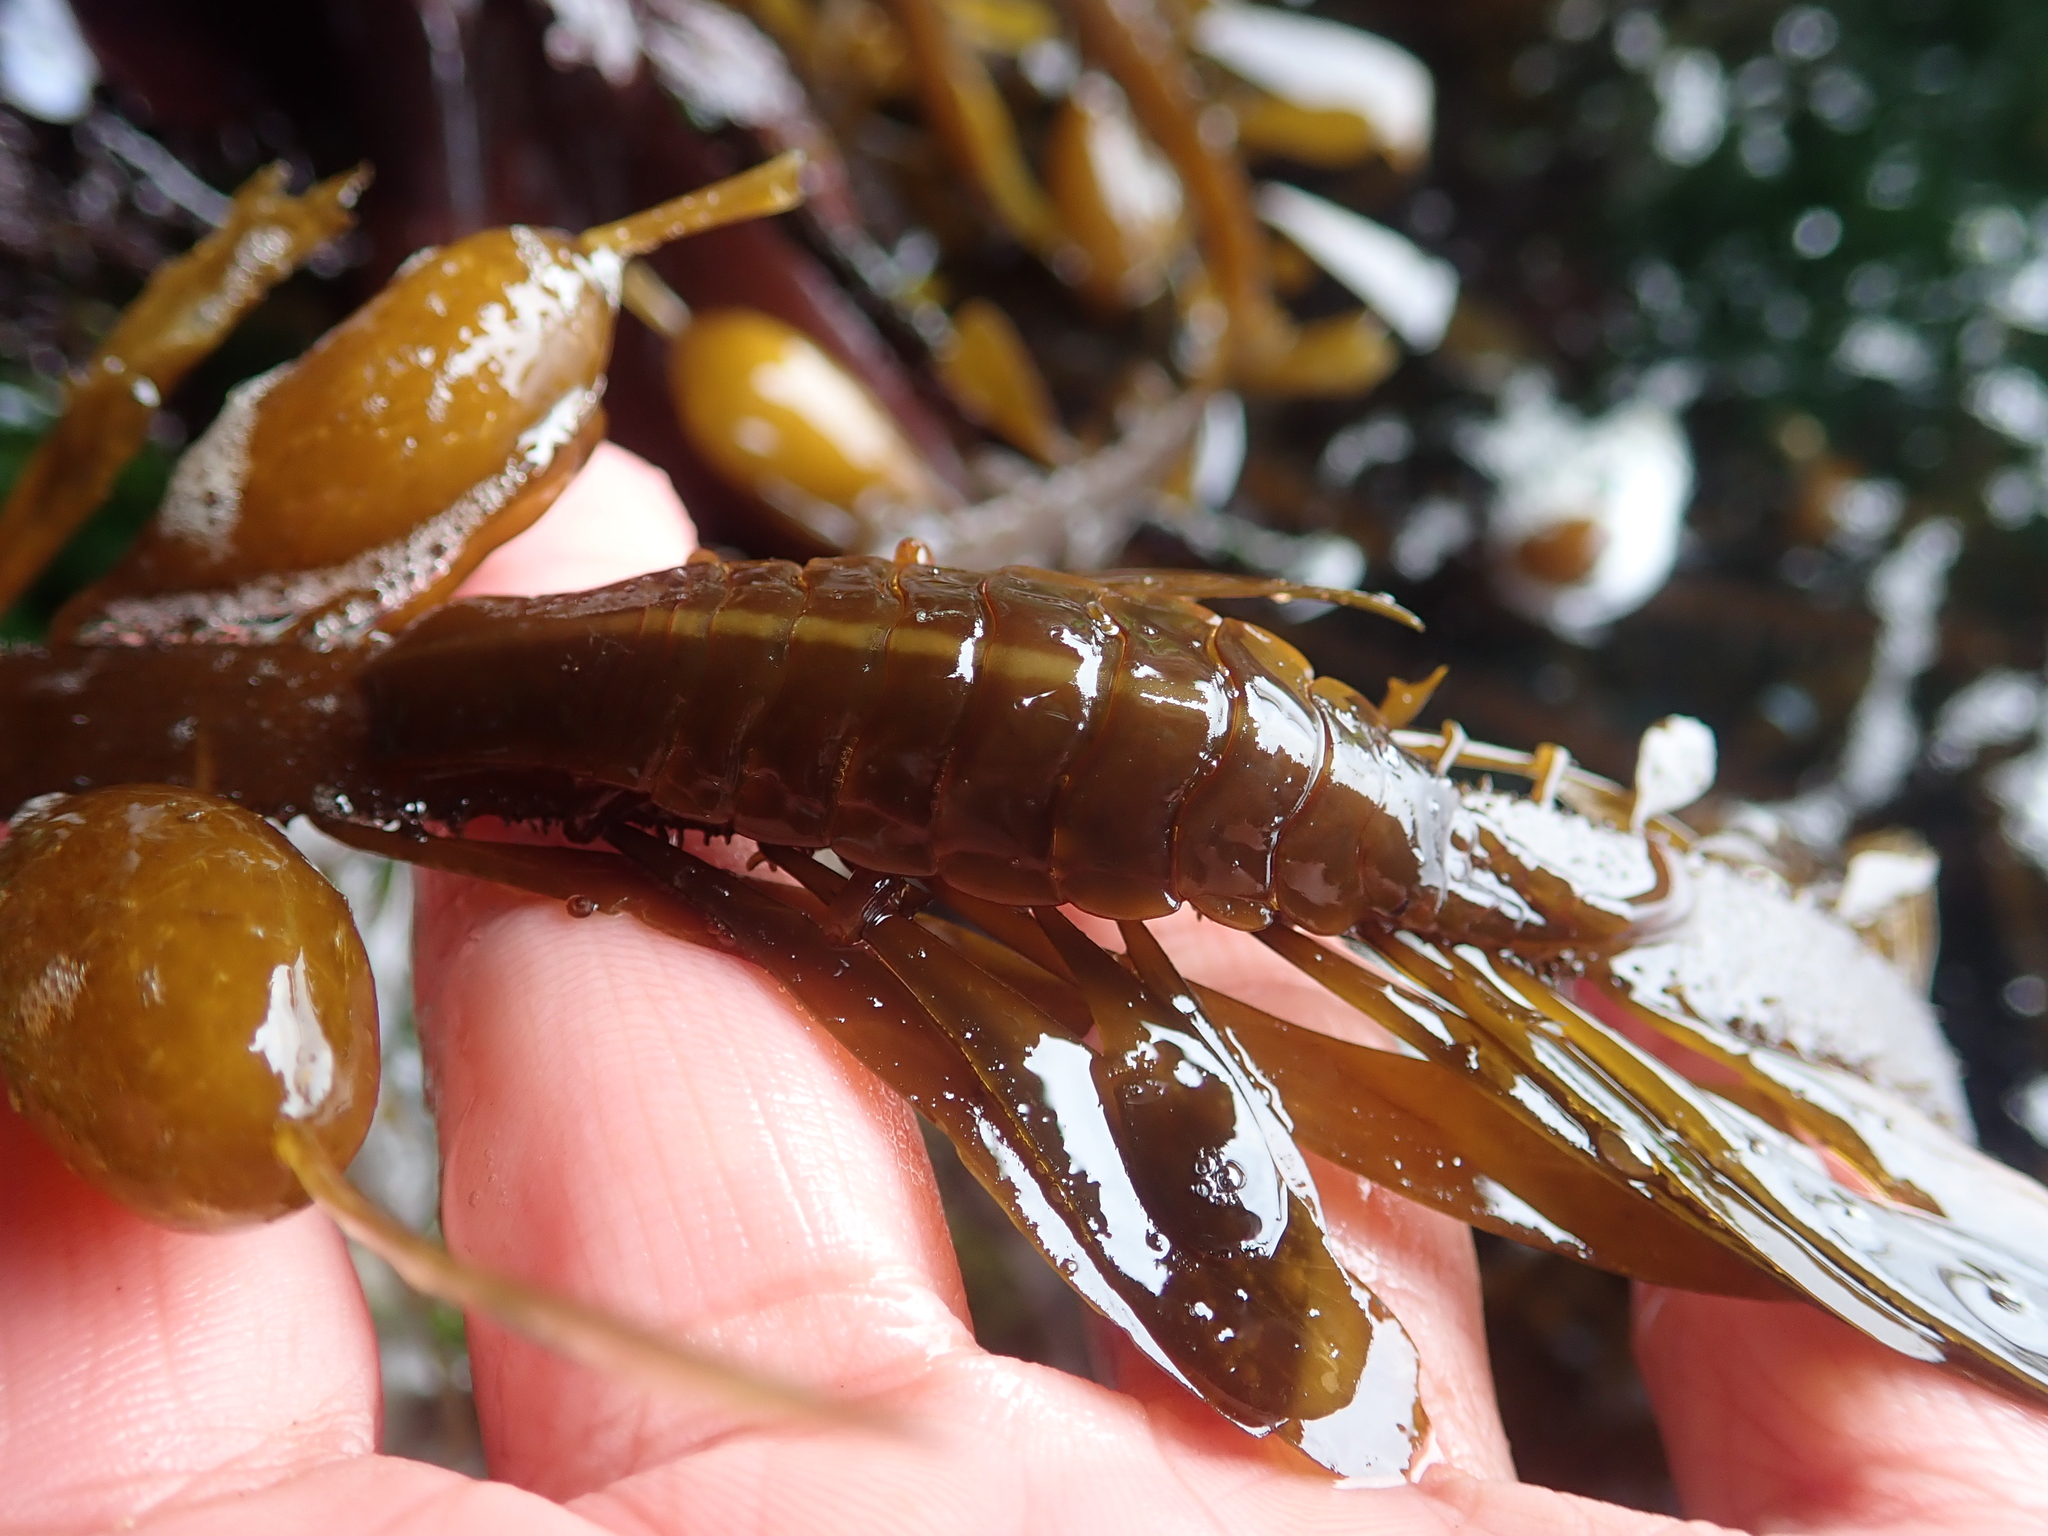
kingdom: Animalia
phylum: Arthropoda
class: Malacostraca
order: Isopoda
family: Idoteidae
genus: Pentidotea
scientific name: Pentidotea stenops
